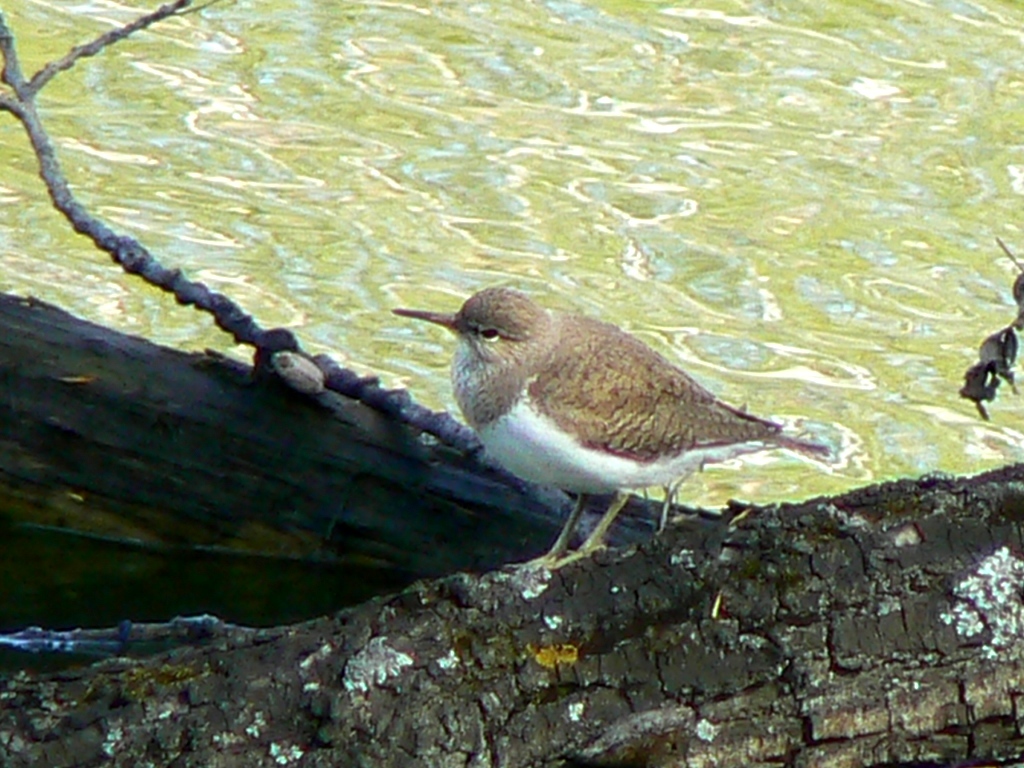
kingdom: Animalia
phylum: Chordata
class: Aves
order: Charadriiformes
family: Scolopacidae
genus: Actitis
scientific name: Actitis hypoleucos
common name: Common sandpiper
